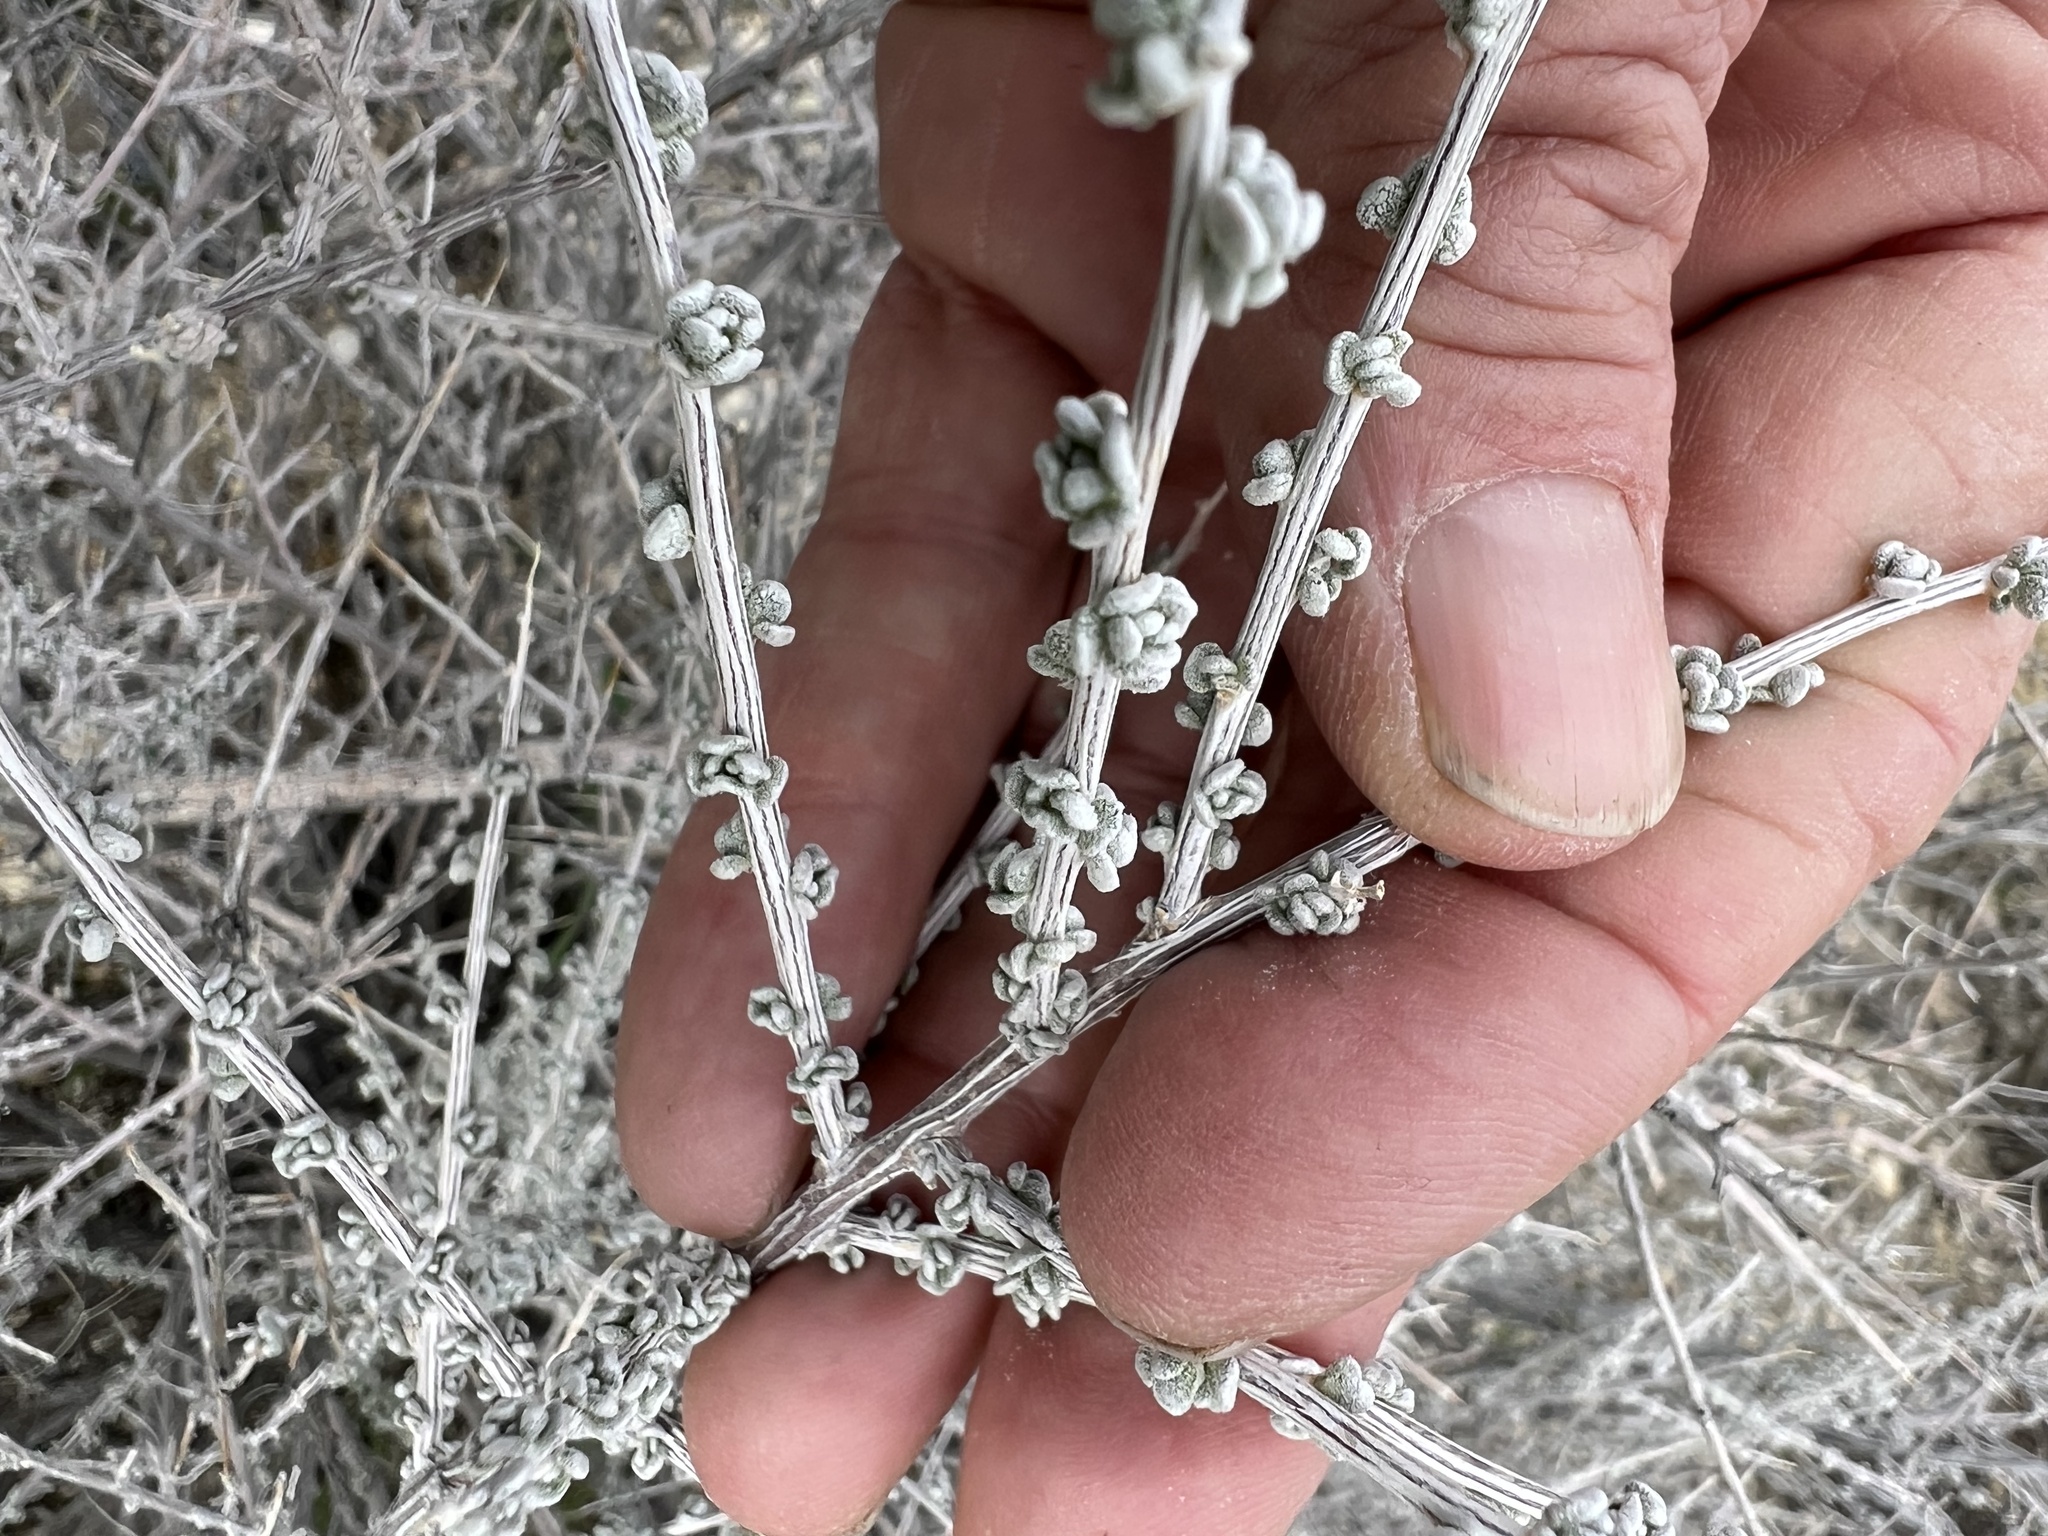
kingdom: Plantae
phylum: Tracheophyta
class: Magnoliopsida
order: Caryophyllales
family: Amaranthaceae
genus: Grayia
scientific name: Grayia spinosa
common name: Spiny hopsage
